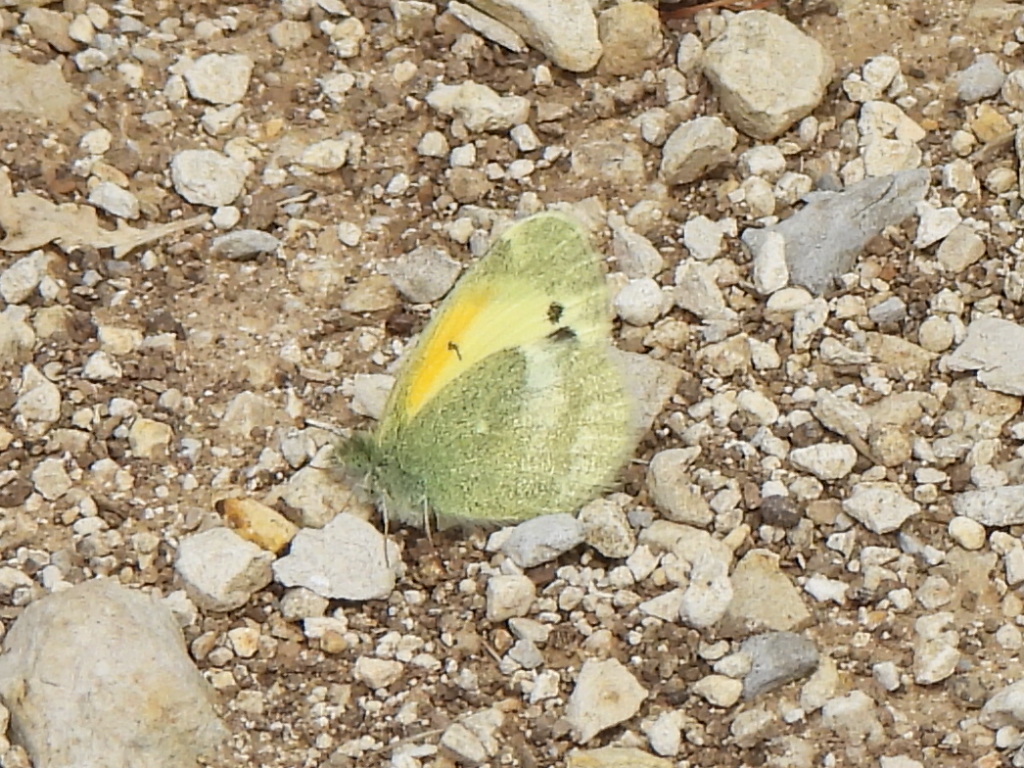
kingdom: Animalia
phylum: Arthropoda
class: Insecta
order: Lepidoptera
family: Pieridae
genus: Nathalis
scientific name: Nathalis iole
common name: Dainty sulphur
